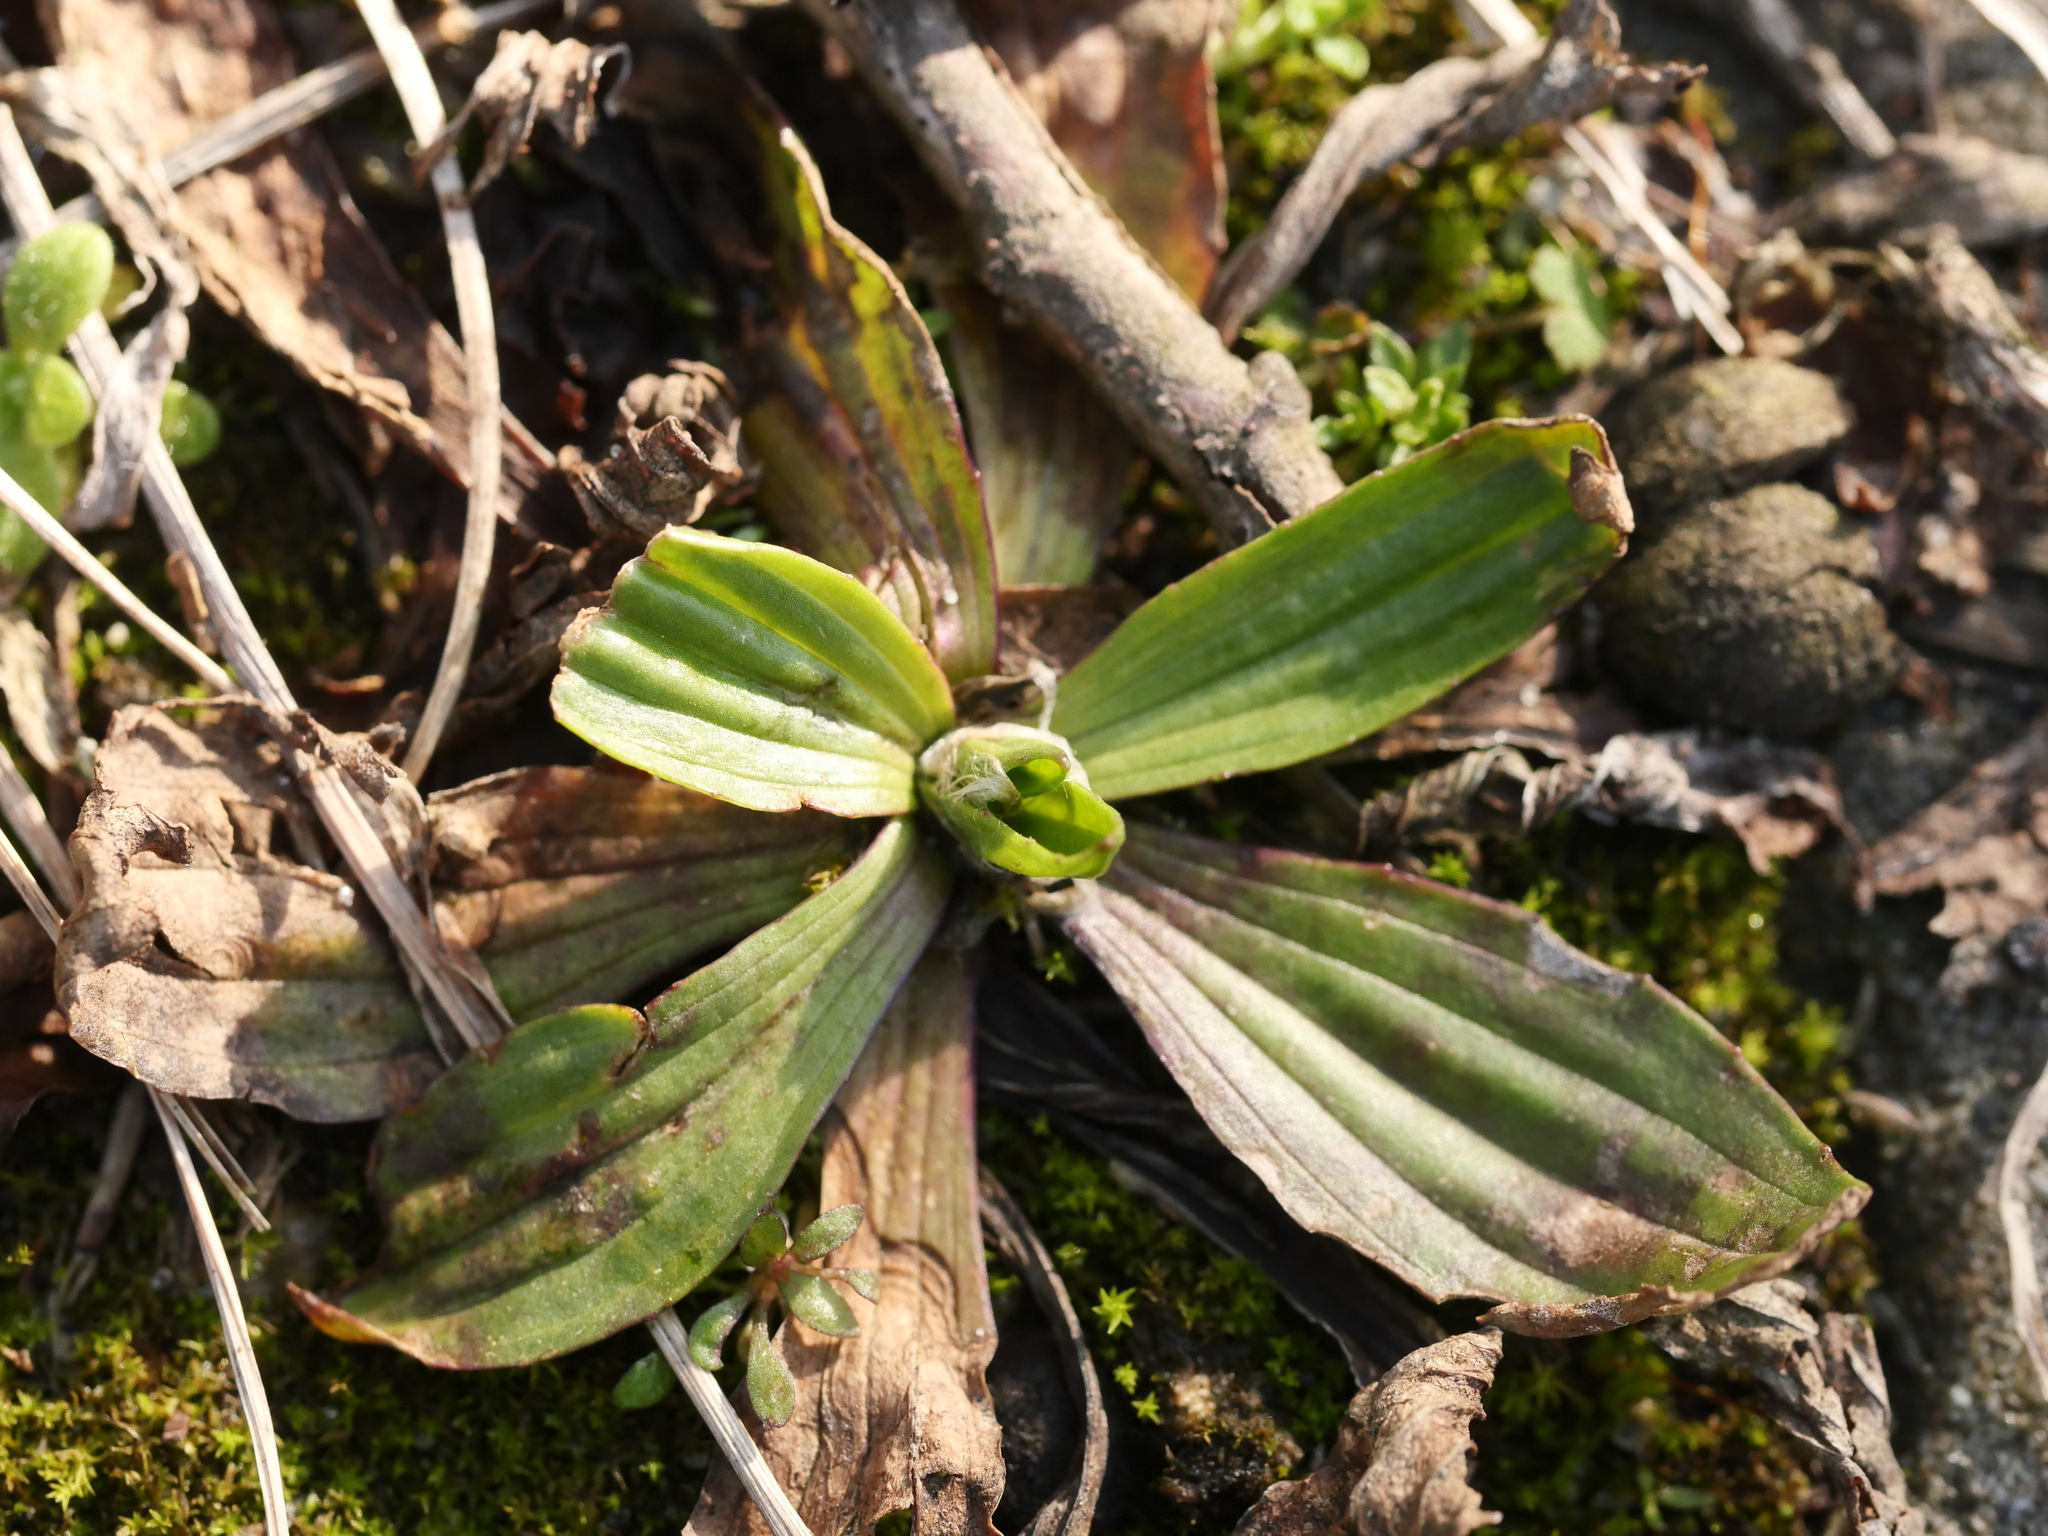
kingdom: Plantae
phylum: Tracheophyta
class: Magnoliopsida
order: Lamiales
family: Plantaginaceae
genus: Plantago
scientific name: Plantago lanceolata
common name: Ribwort plantain
